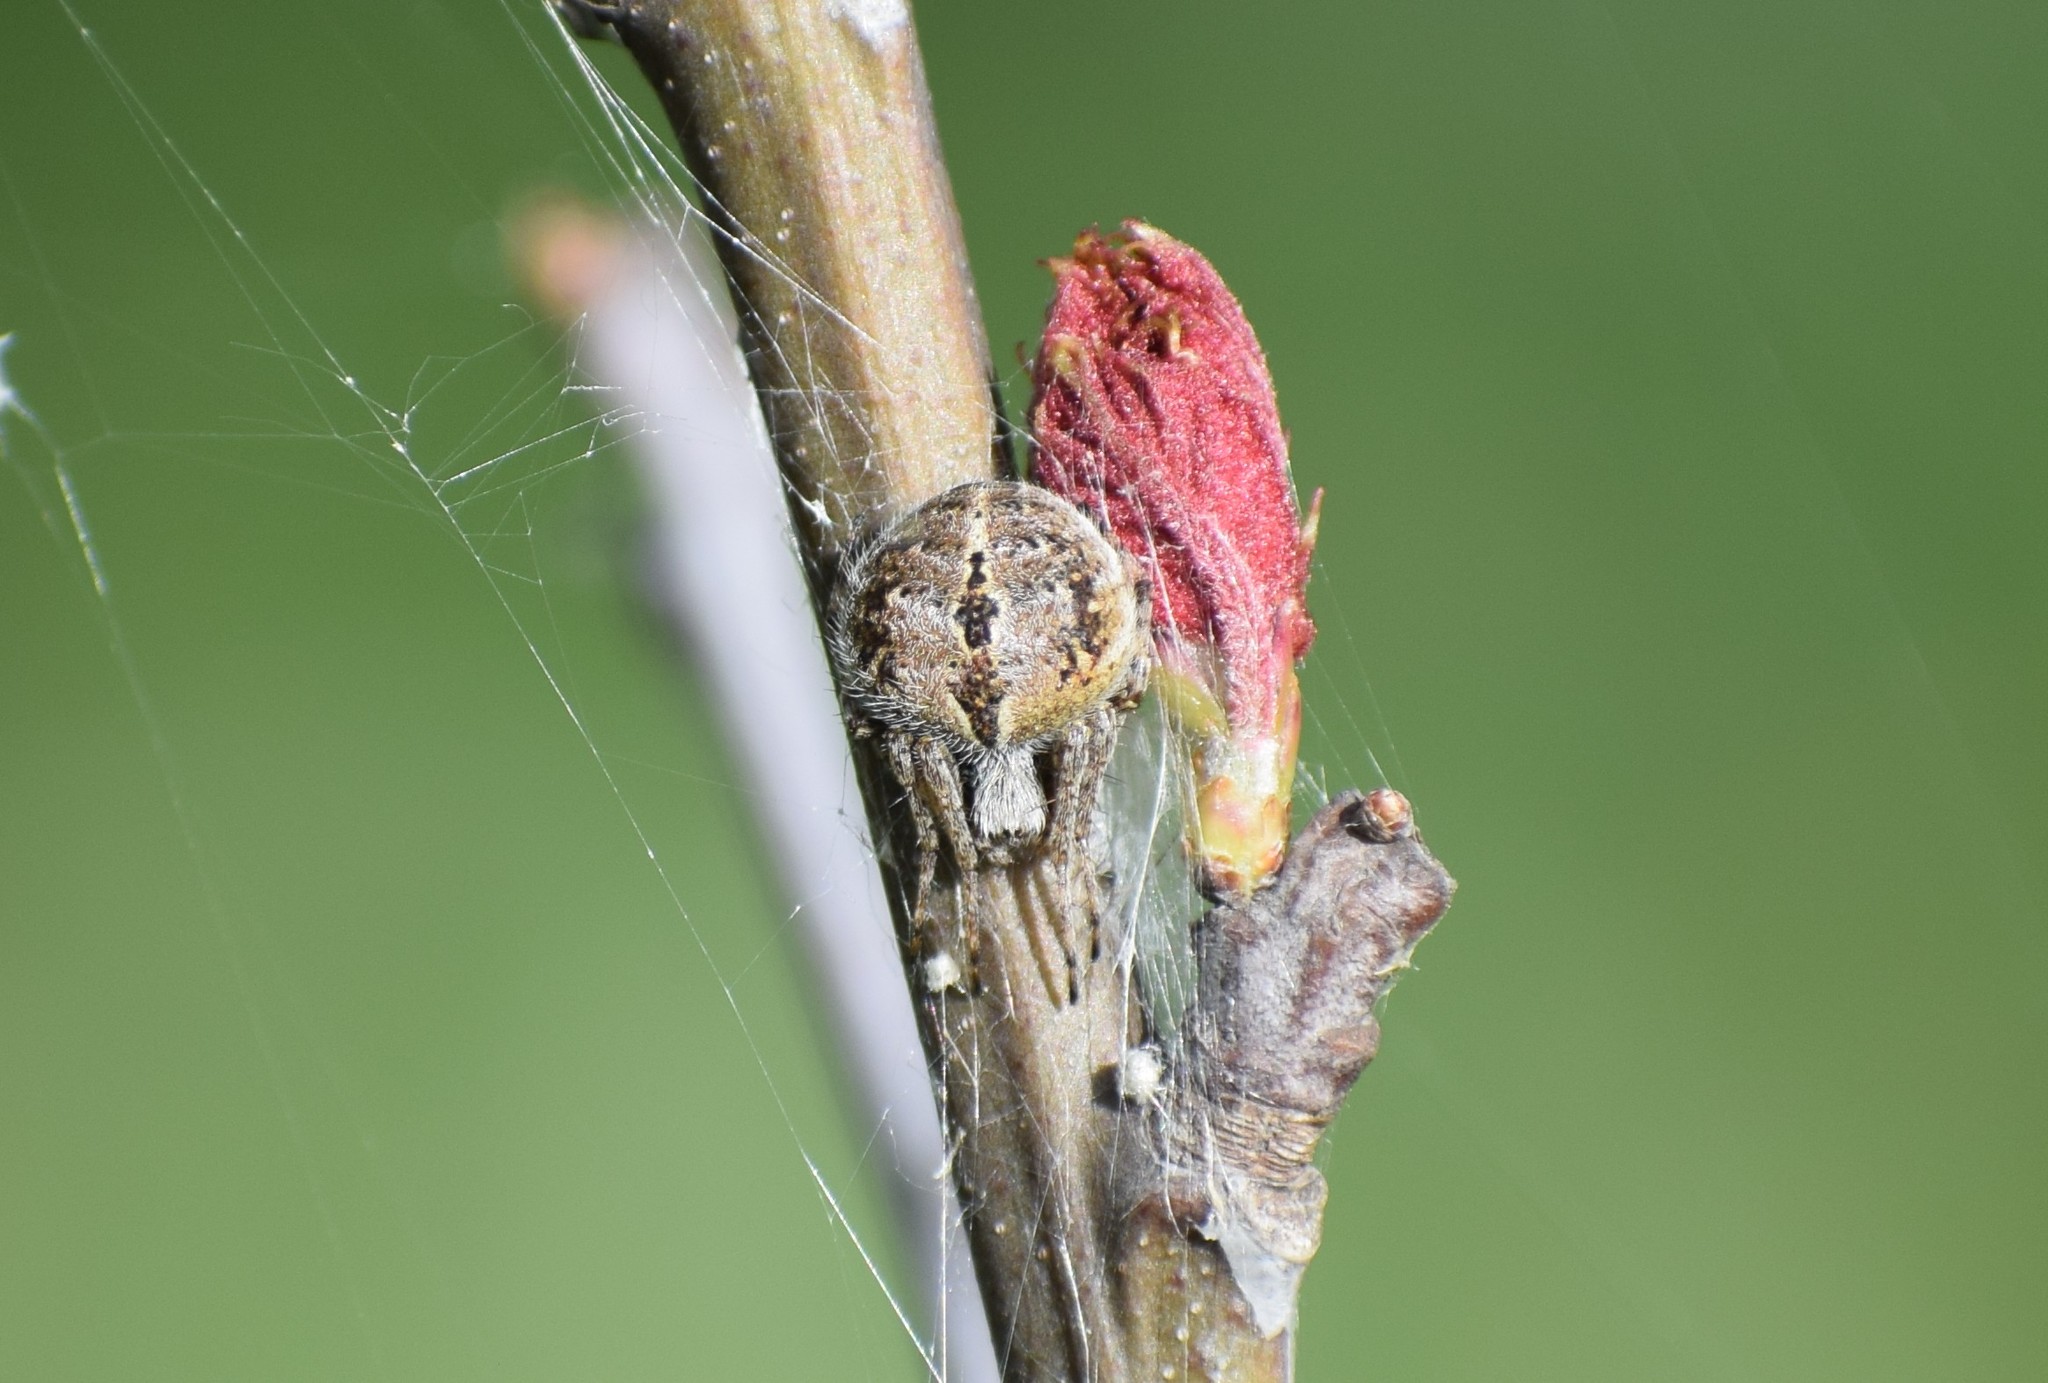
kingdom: Animalia
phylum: Arthropoda
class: Arachnida
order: Araneae
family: Araneidae
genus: Agalenatea
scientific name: Agalenatea redii
